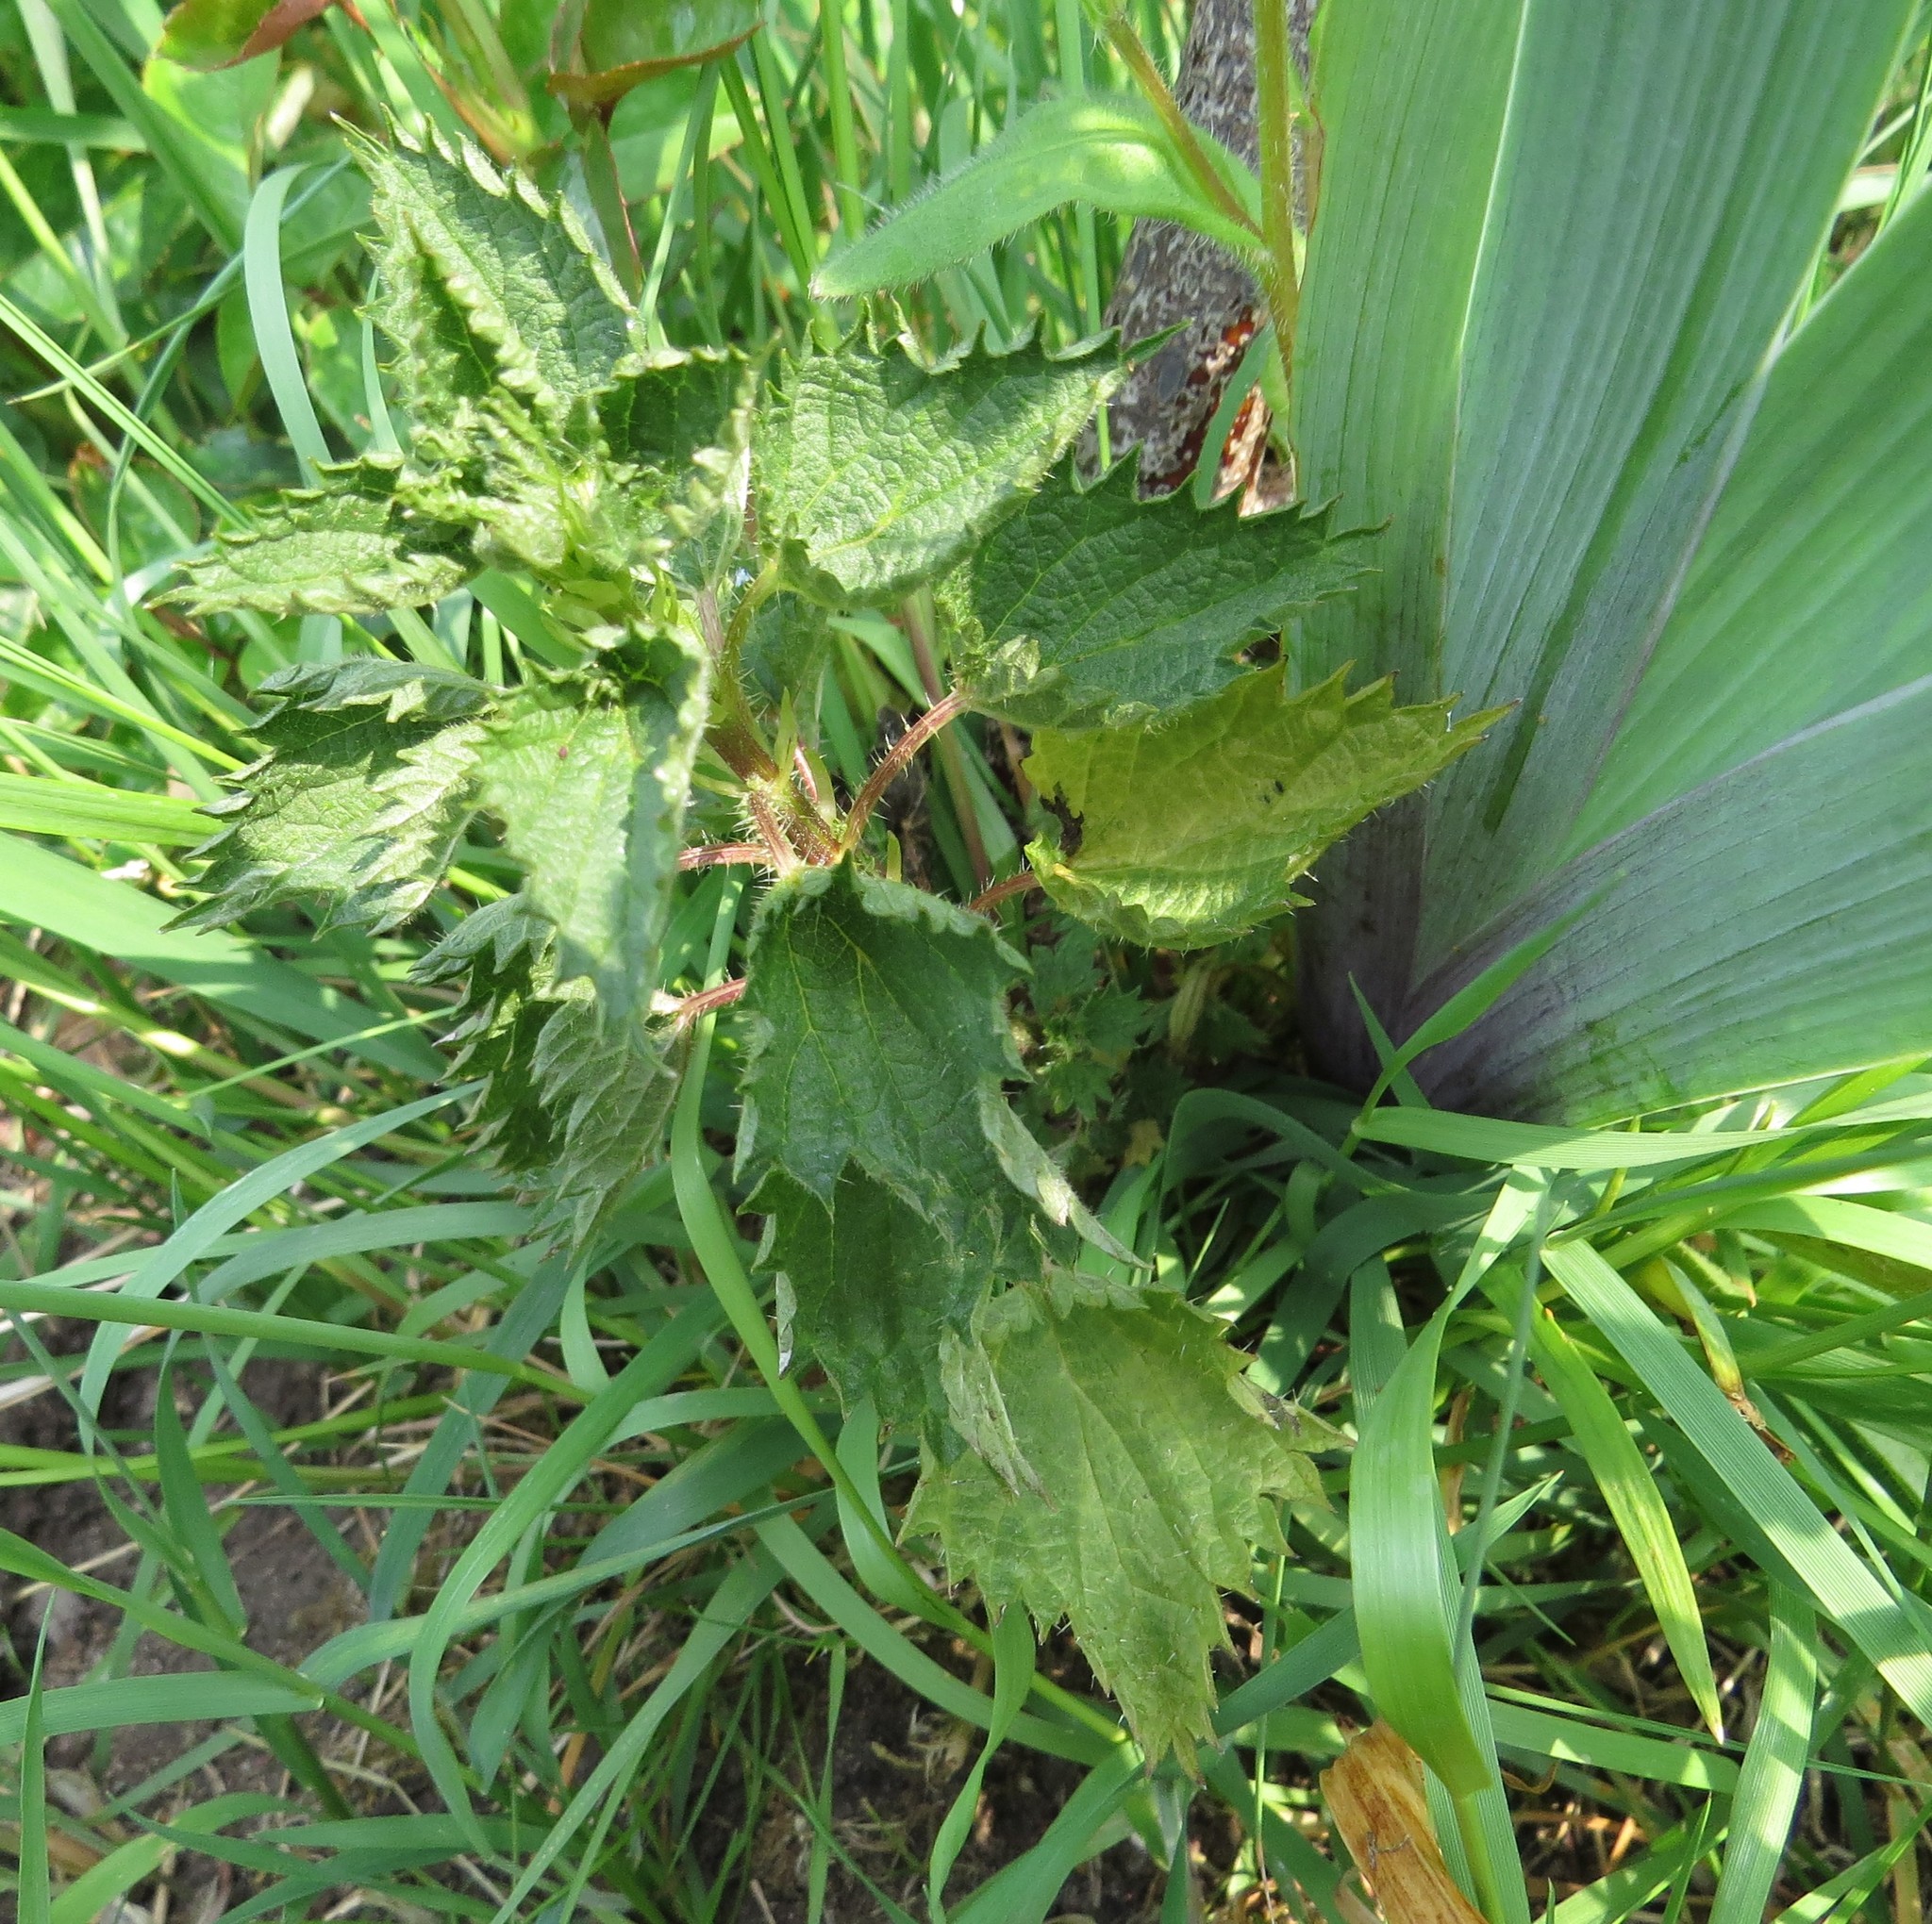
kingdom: Plantae
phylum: Tracheophyta
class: Magnoliopsida
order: Rosales
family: Urticaceae
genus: Urtica
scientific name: Urtica dioica
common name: Common nettle
